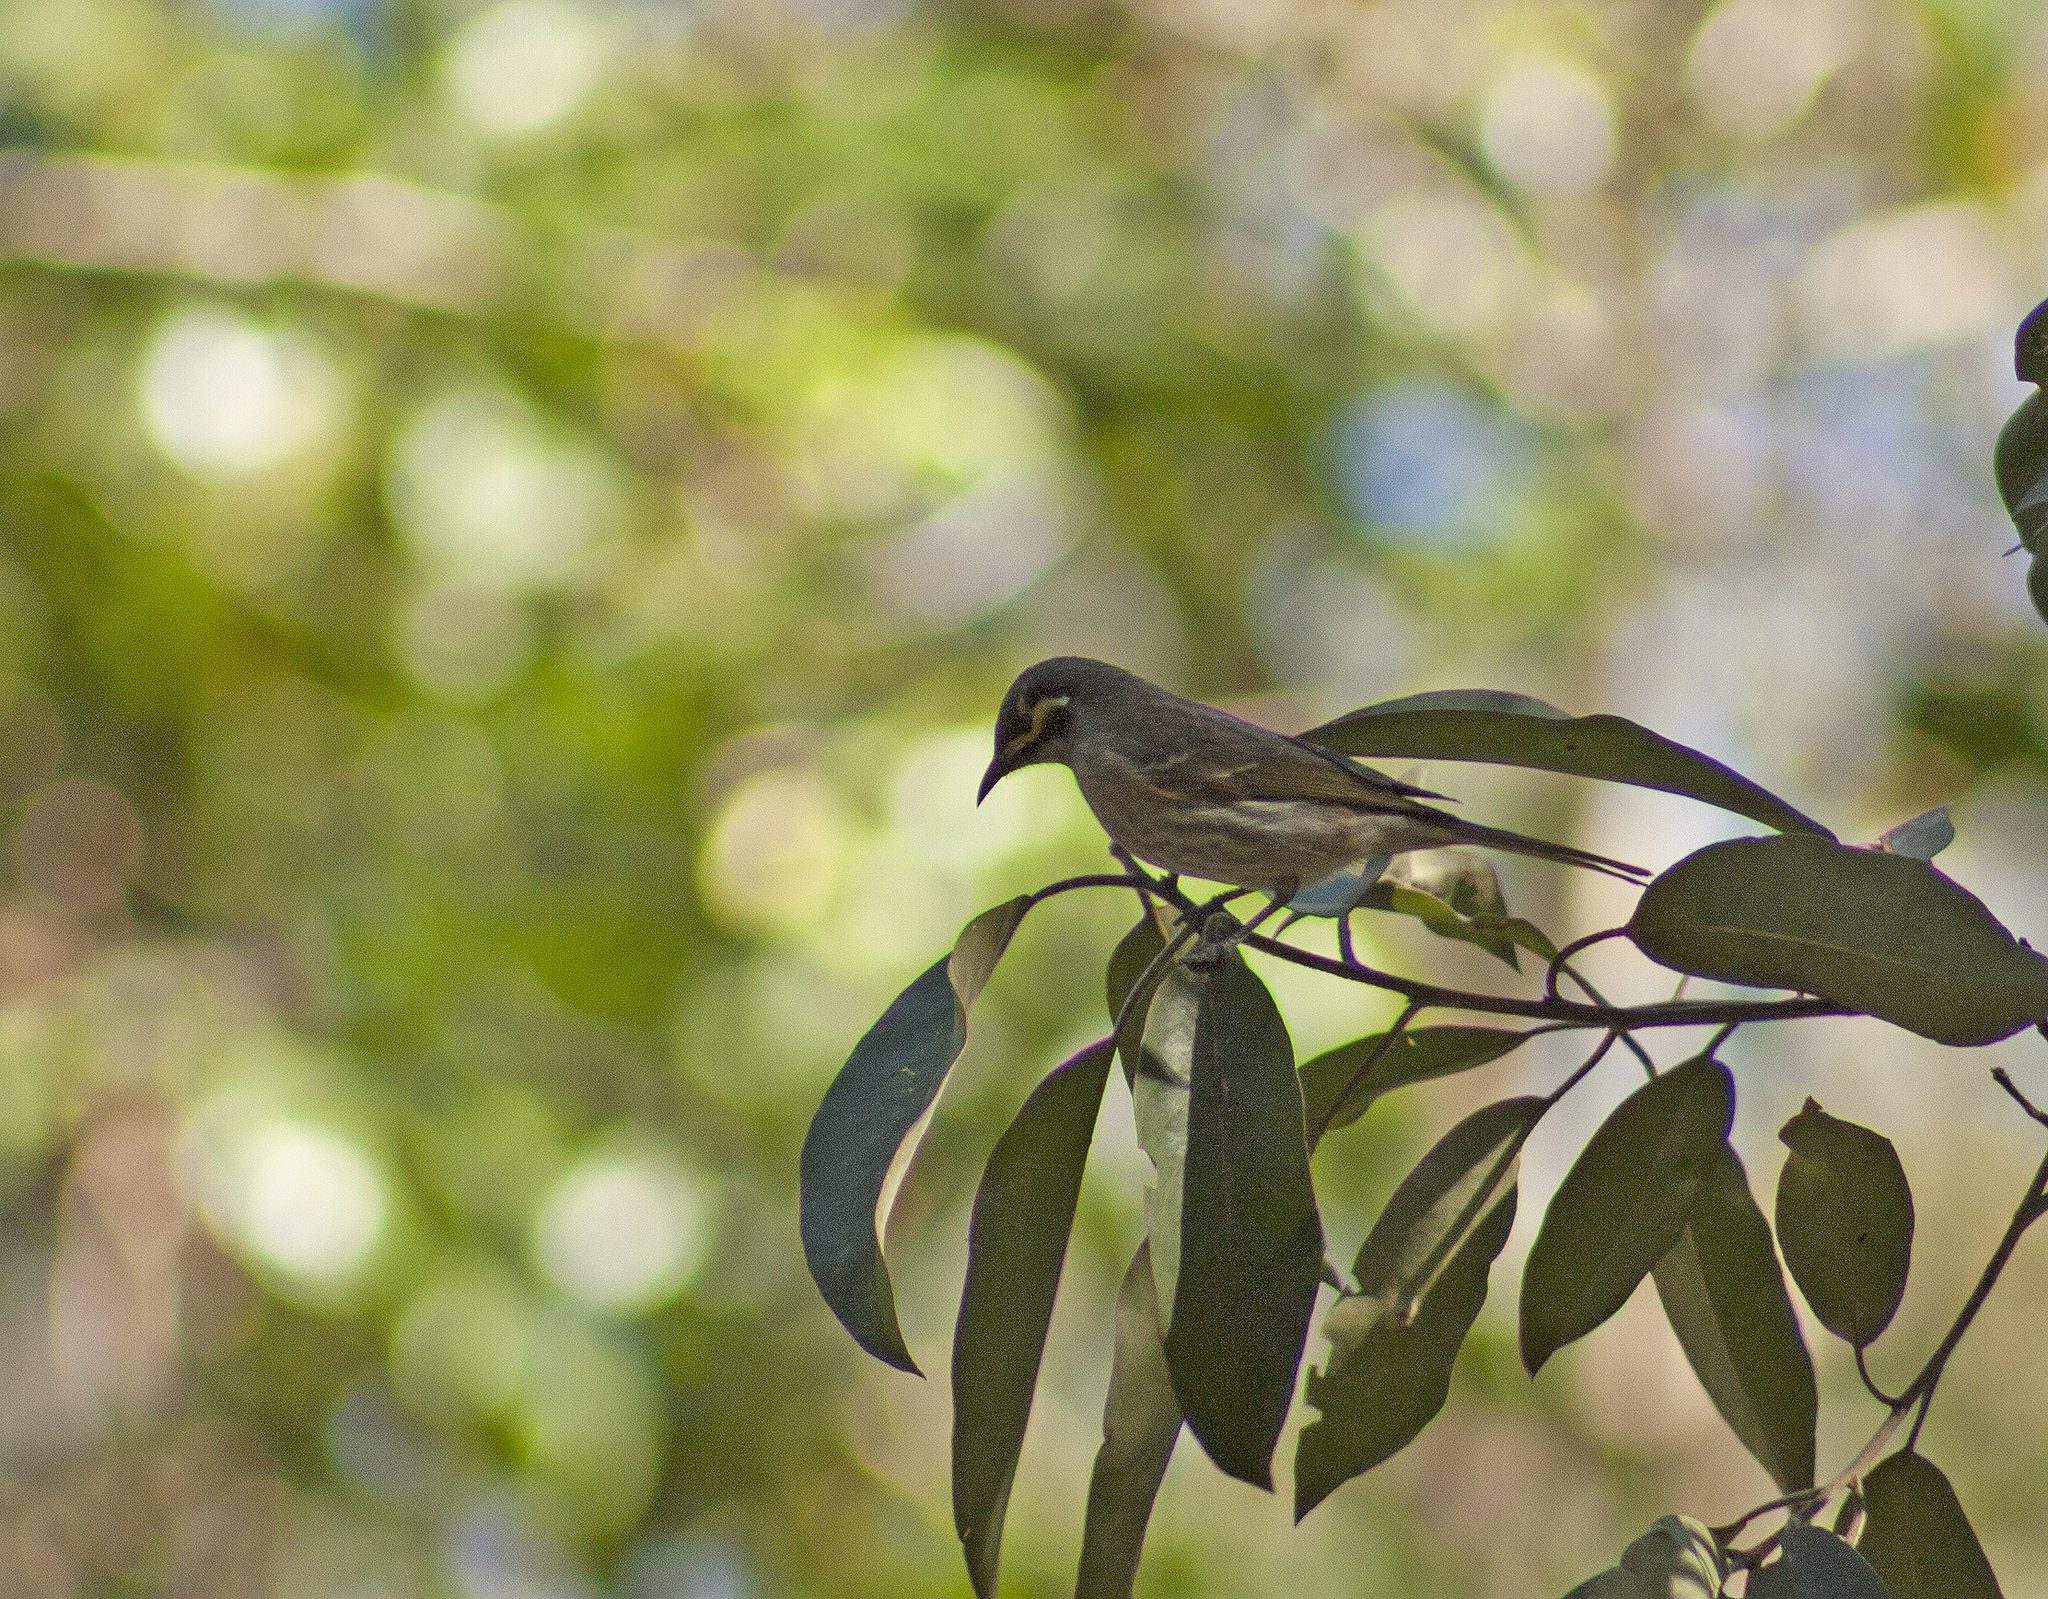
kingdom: Animalia
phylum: Chordata
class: Aves
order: Passeriformes
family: Meliphagidae
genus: Caligavis
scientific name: Caligavis chrysops
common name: Yellow-faced honeyeater
